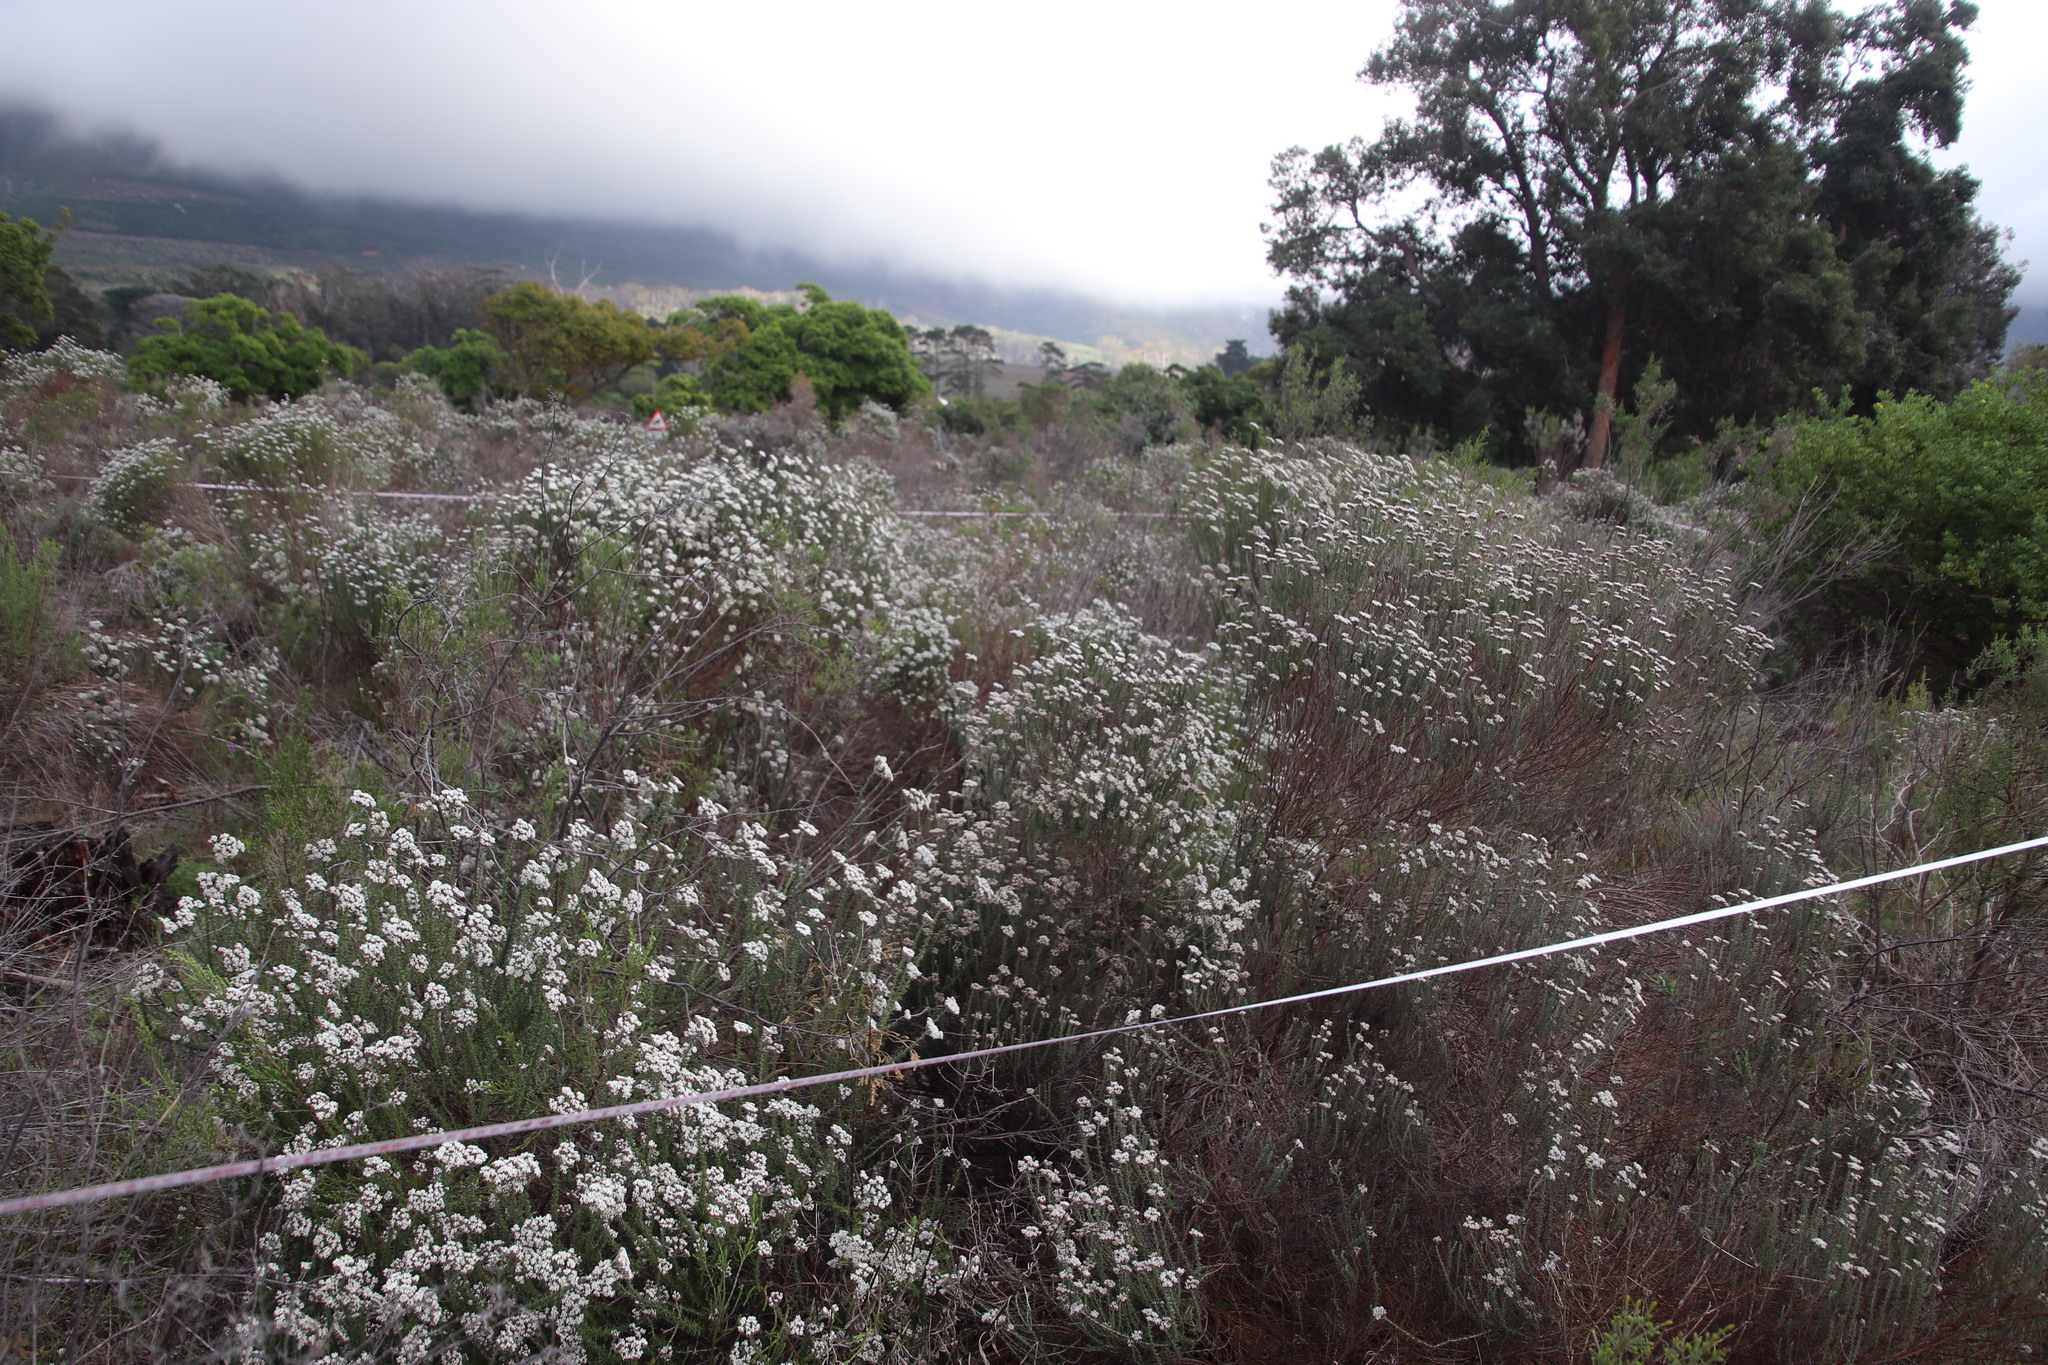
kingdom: Plantae
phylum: Tracheophyta
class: Magnoliopsida
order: Asterales
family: Asteraceae
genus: Metalasia
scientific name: Metalasia densa
